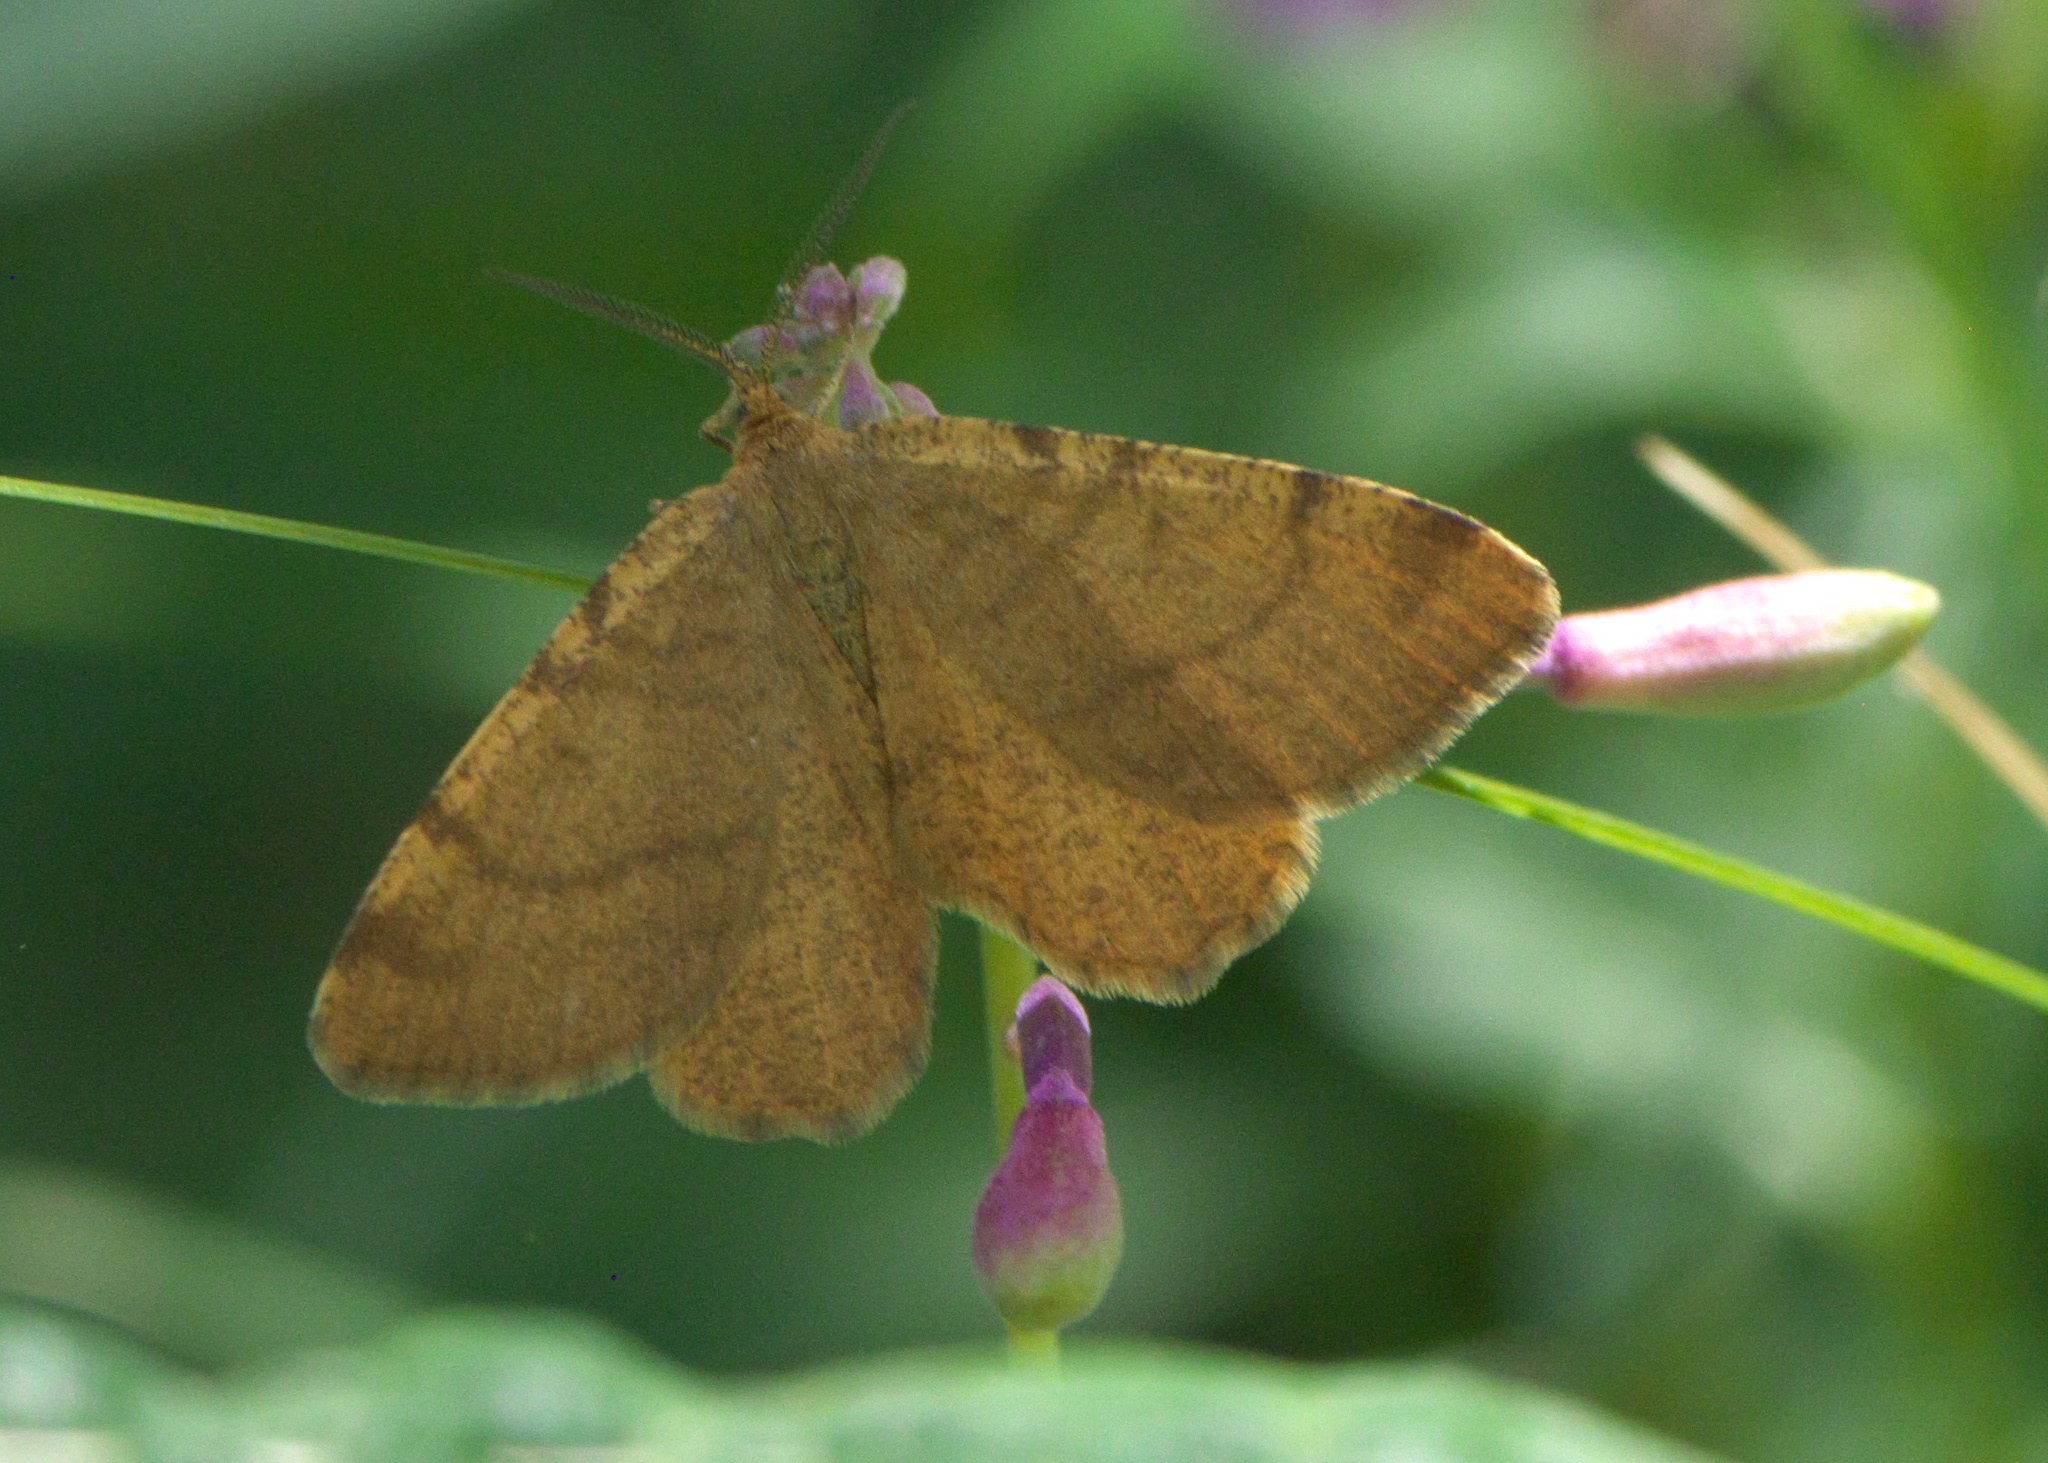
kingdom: Animalia
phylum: Arthropoda
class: Insecta
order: Lepidoptera
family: Geometridae
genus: Macaria
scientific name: Macaria brunneata
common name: Rannoch looper
